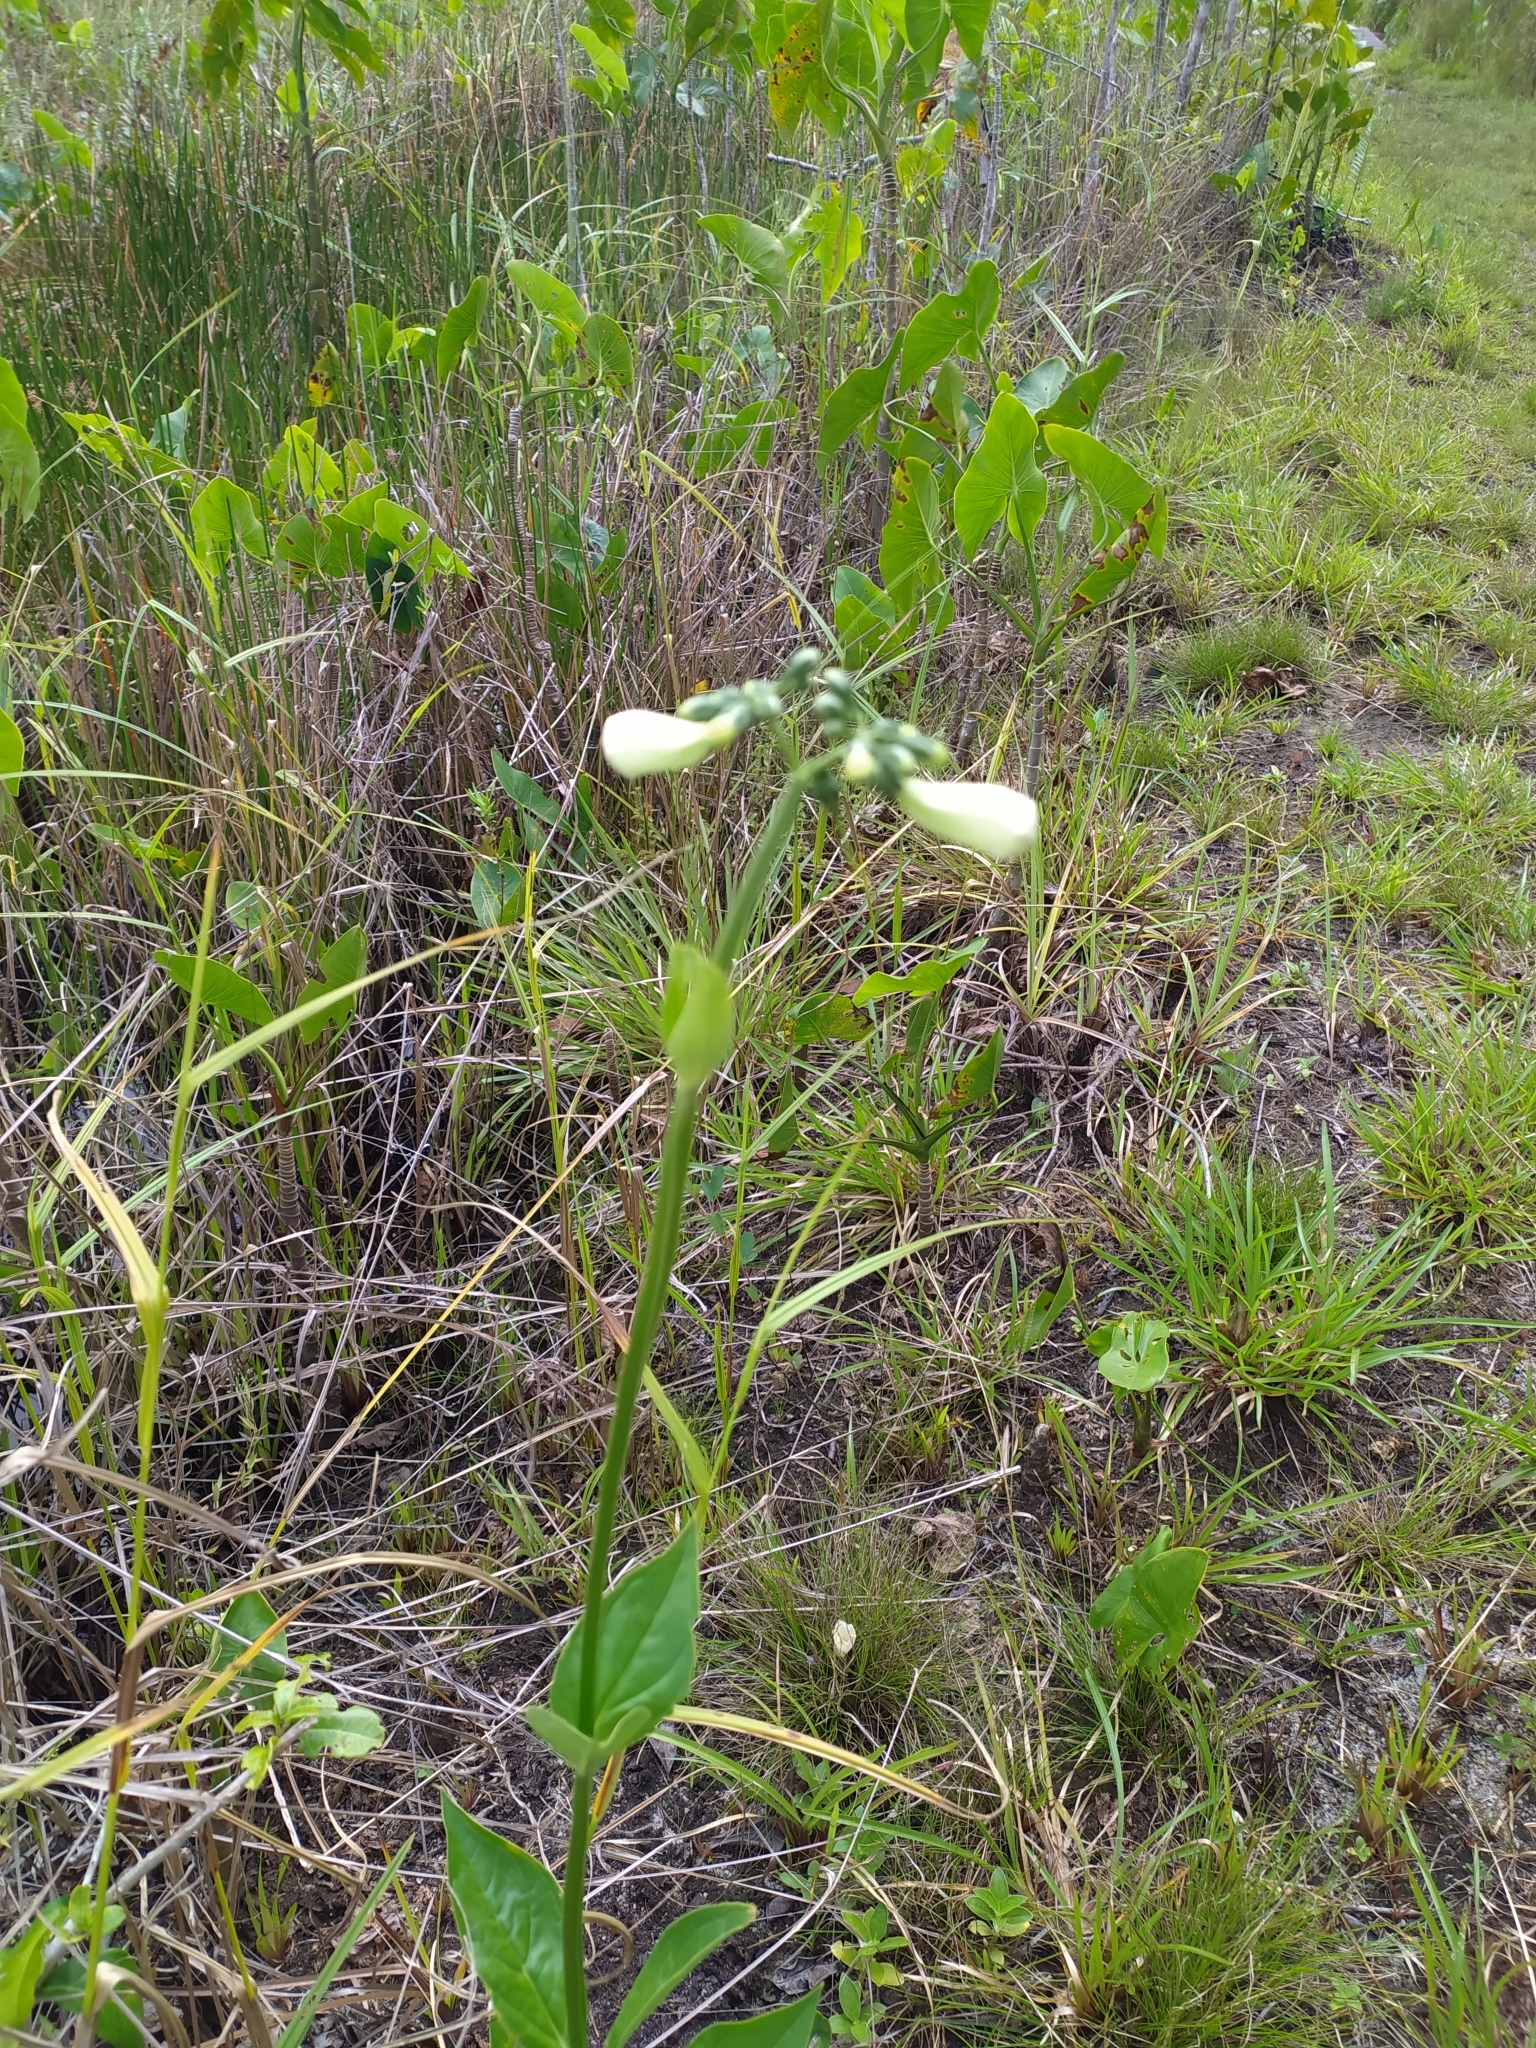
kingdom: Plantae
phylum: Tracheophyta
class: Magnoliopsida
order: Gentianales
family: Gentianaceae
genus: Chelonanthus
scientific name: Chelonanthus alatus
